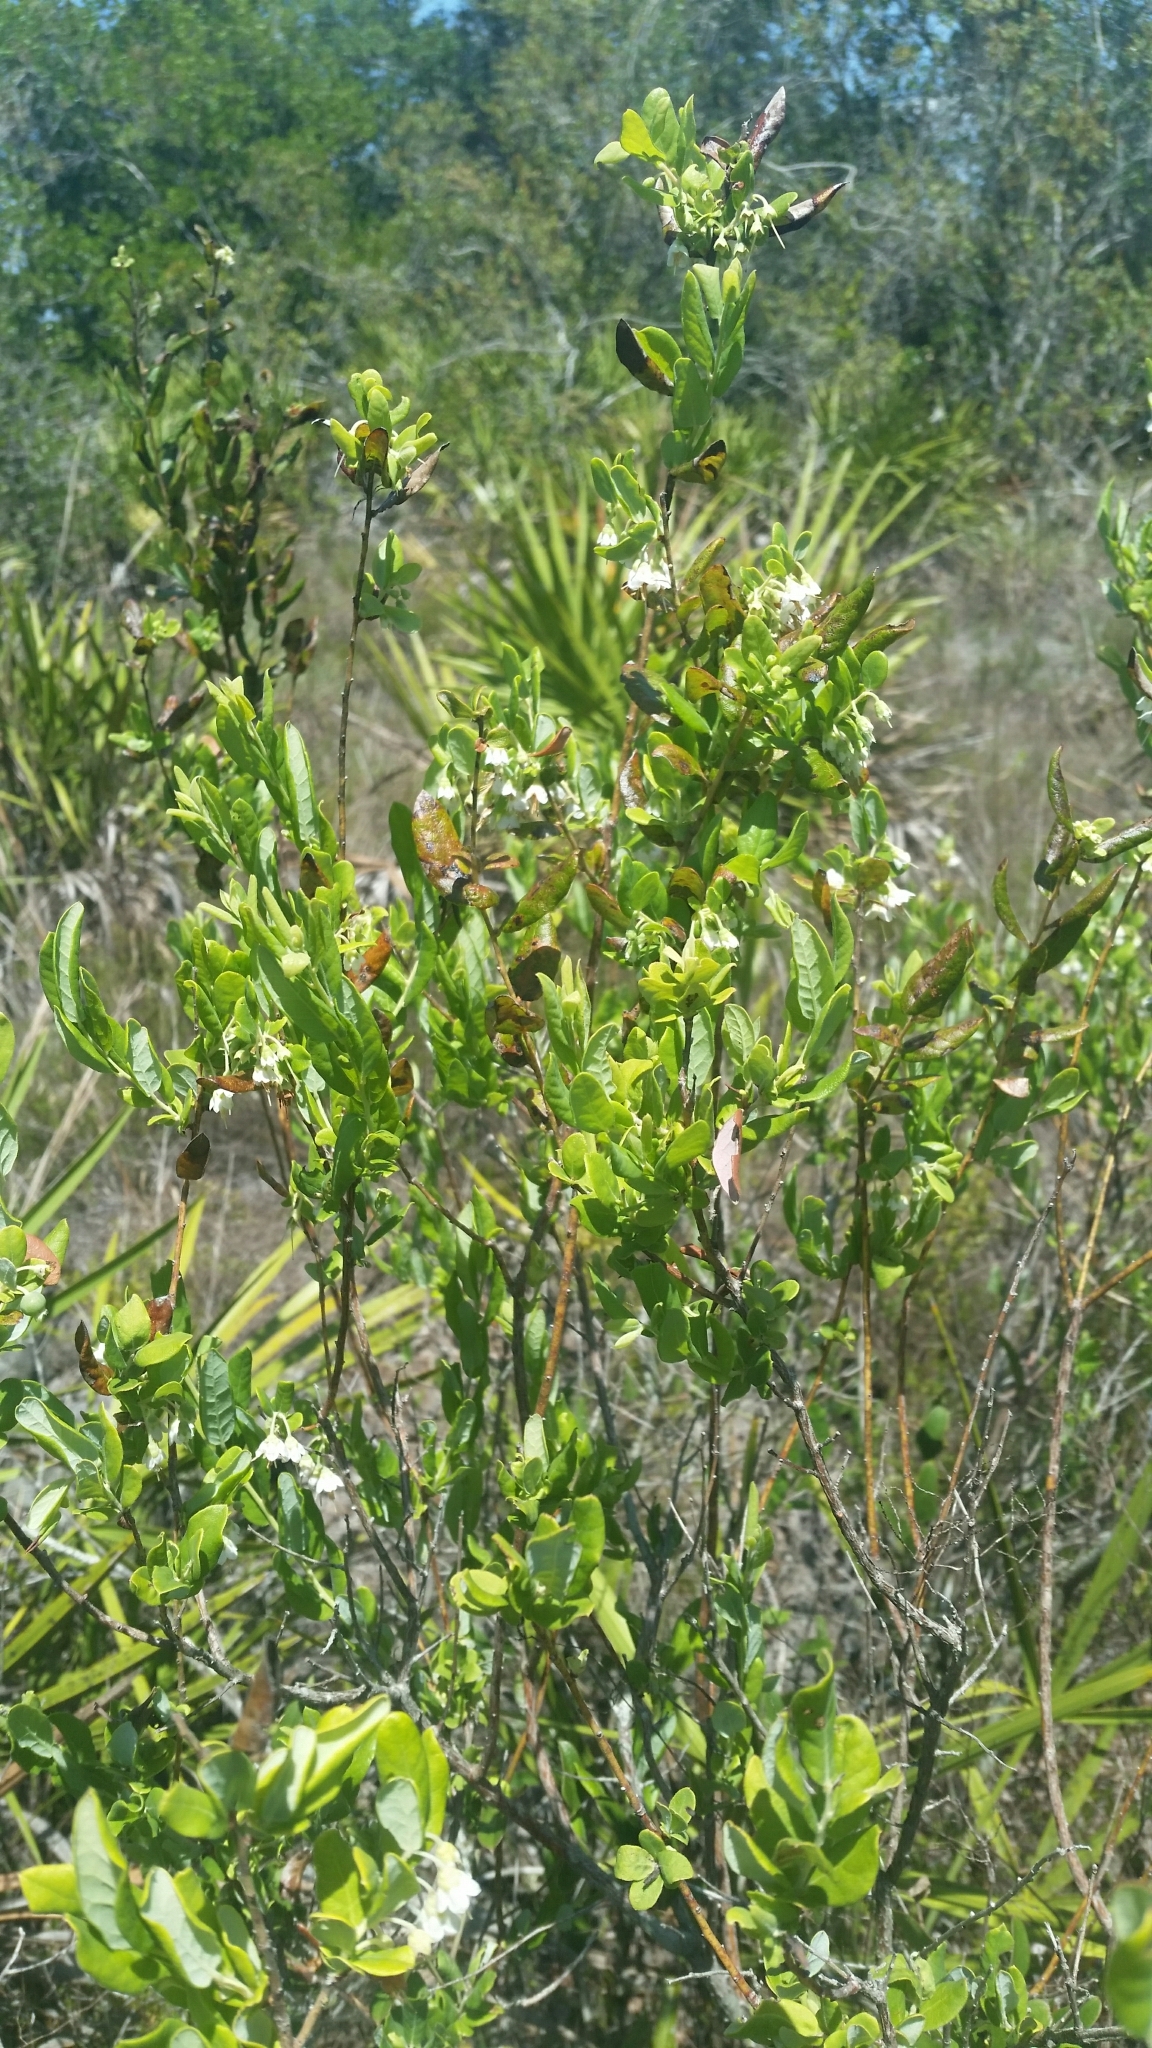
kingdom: Plantae
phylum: Tracheophyta
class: Magnoliopsida
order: Ericales
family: Ericaceae
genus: Vaccinium
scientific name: Vaccinium stamineum
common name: Deerberry
